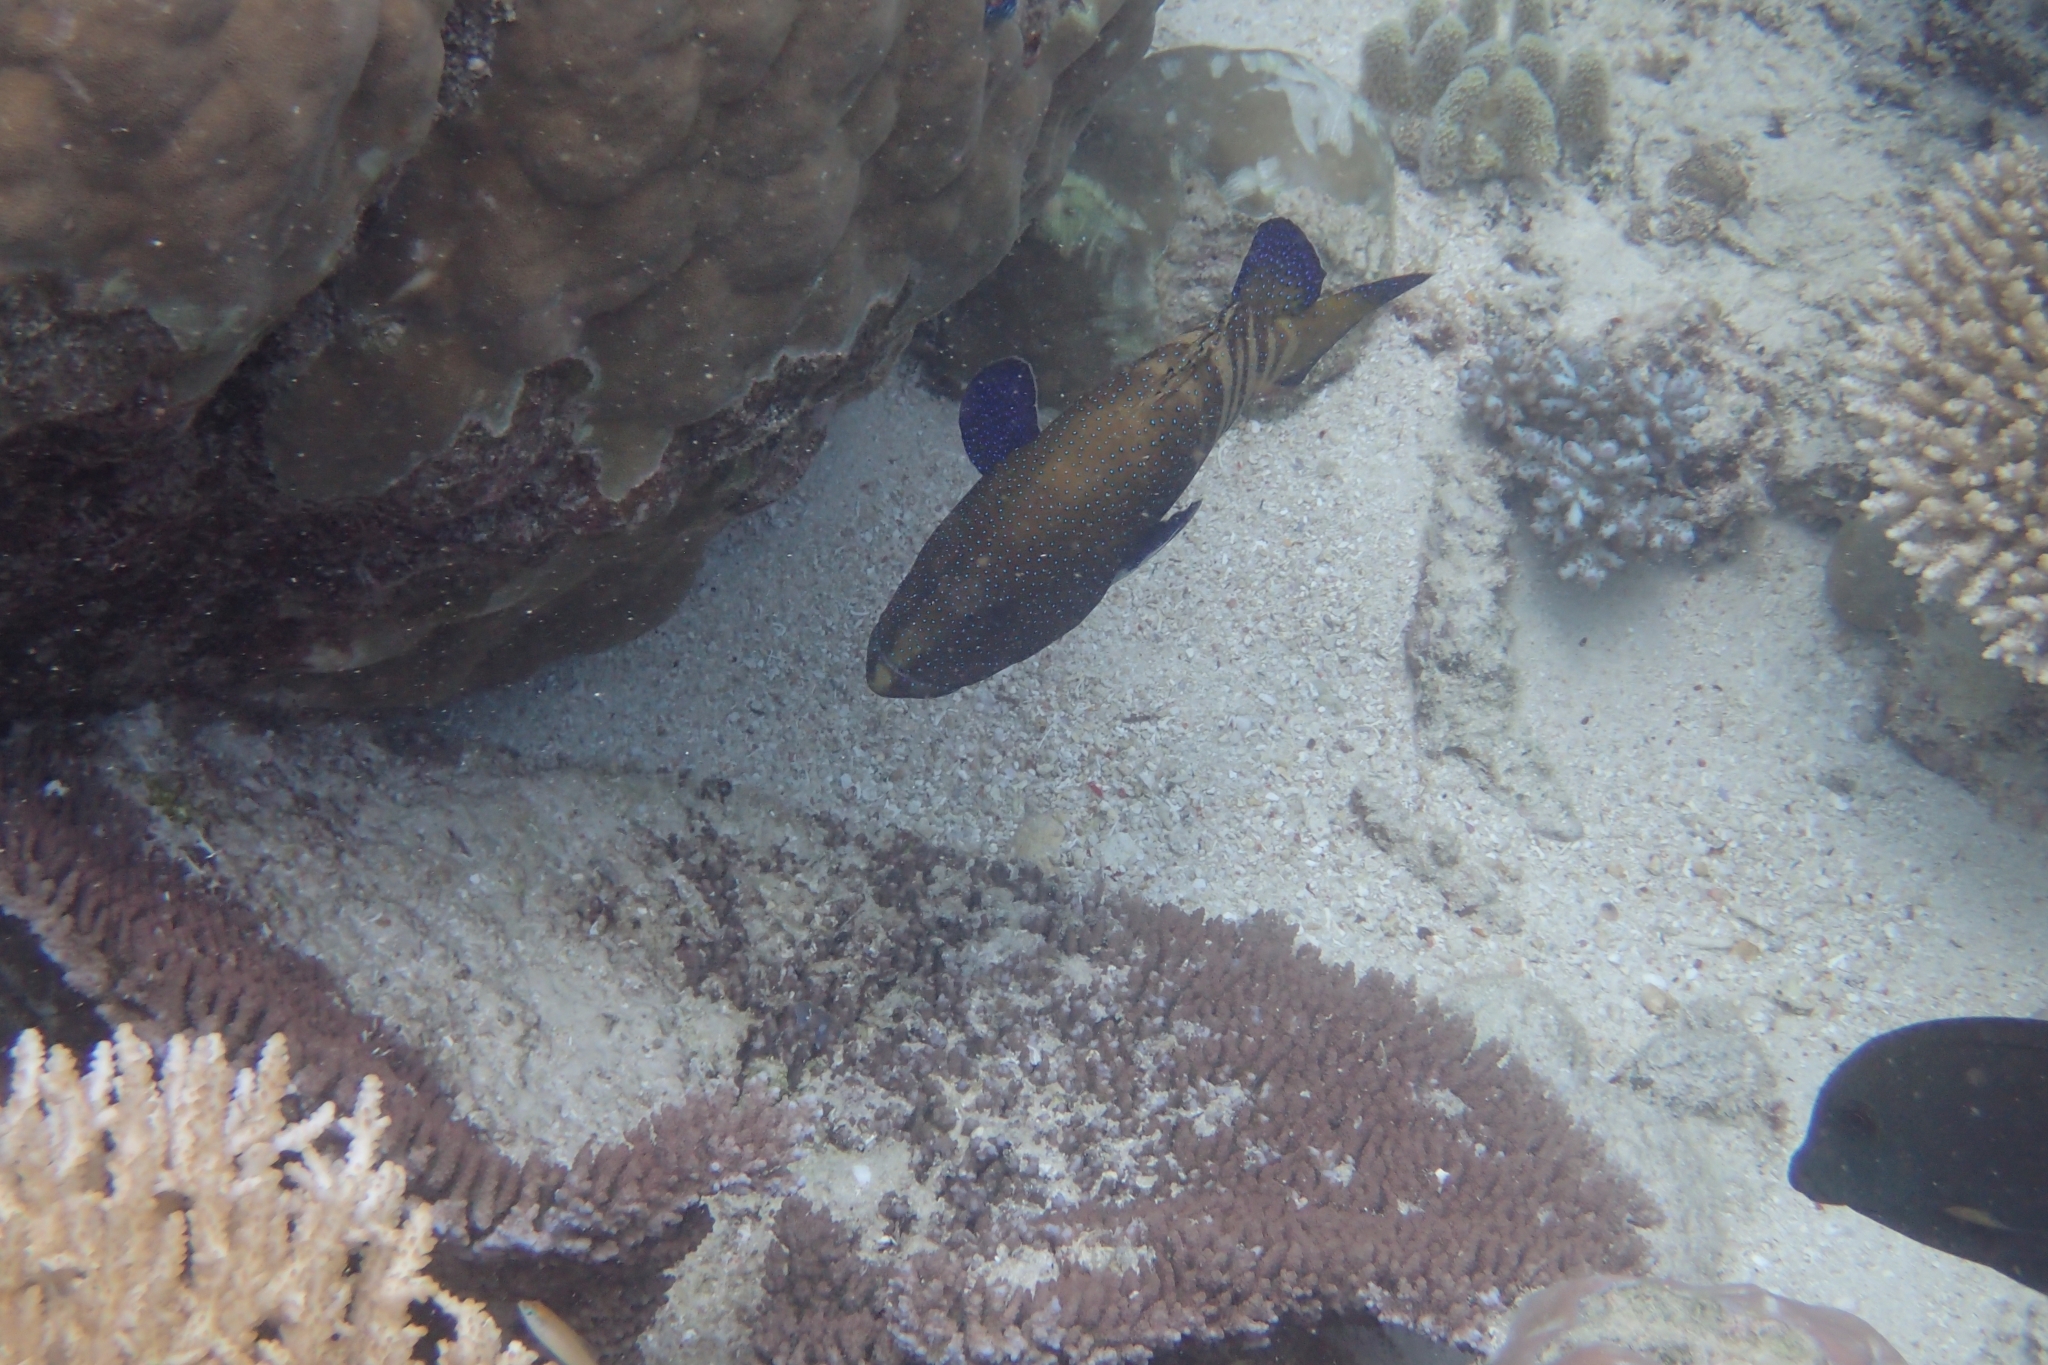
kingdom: Animalia
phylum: Chordata
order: Perciformes
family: Serranidae
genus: Cephalopholis
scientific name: Cephalopholis argus
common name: Peacock grouper
